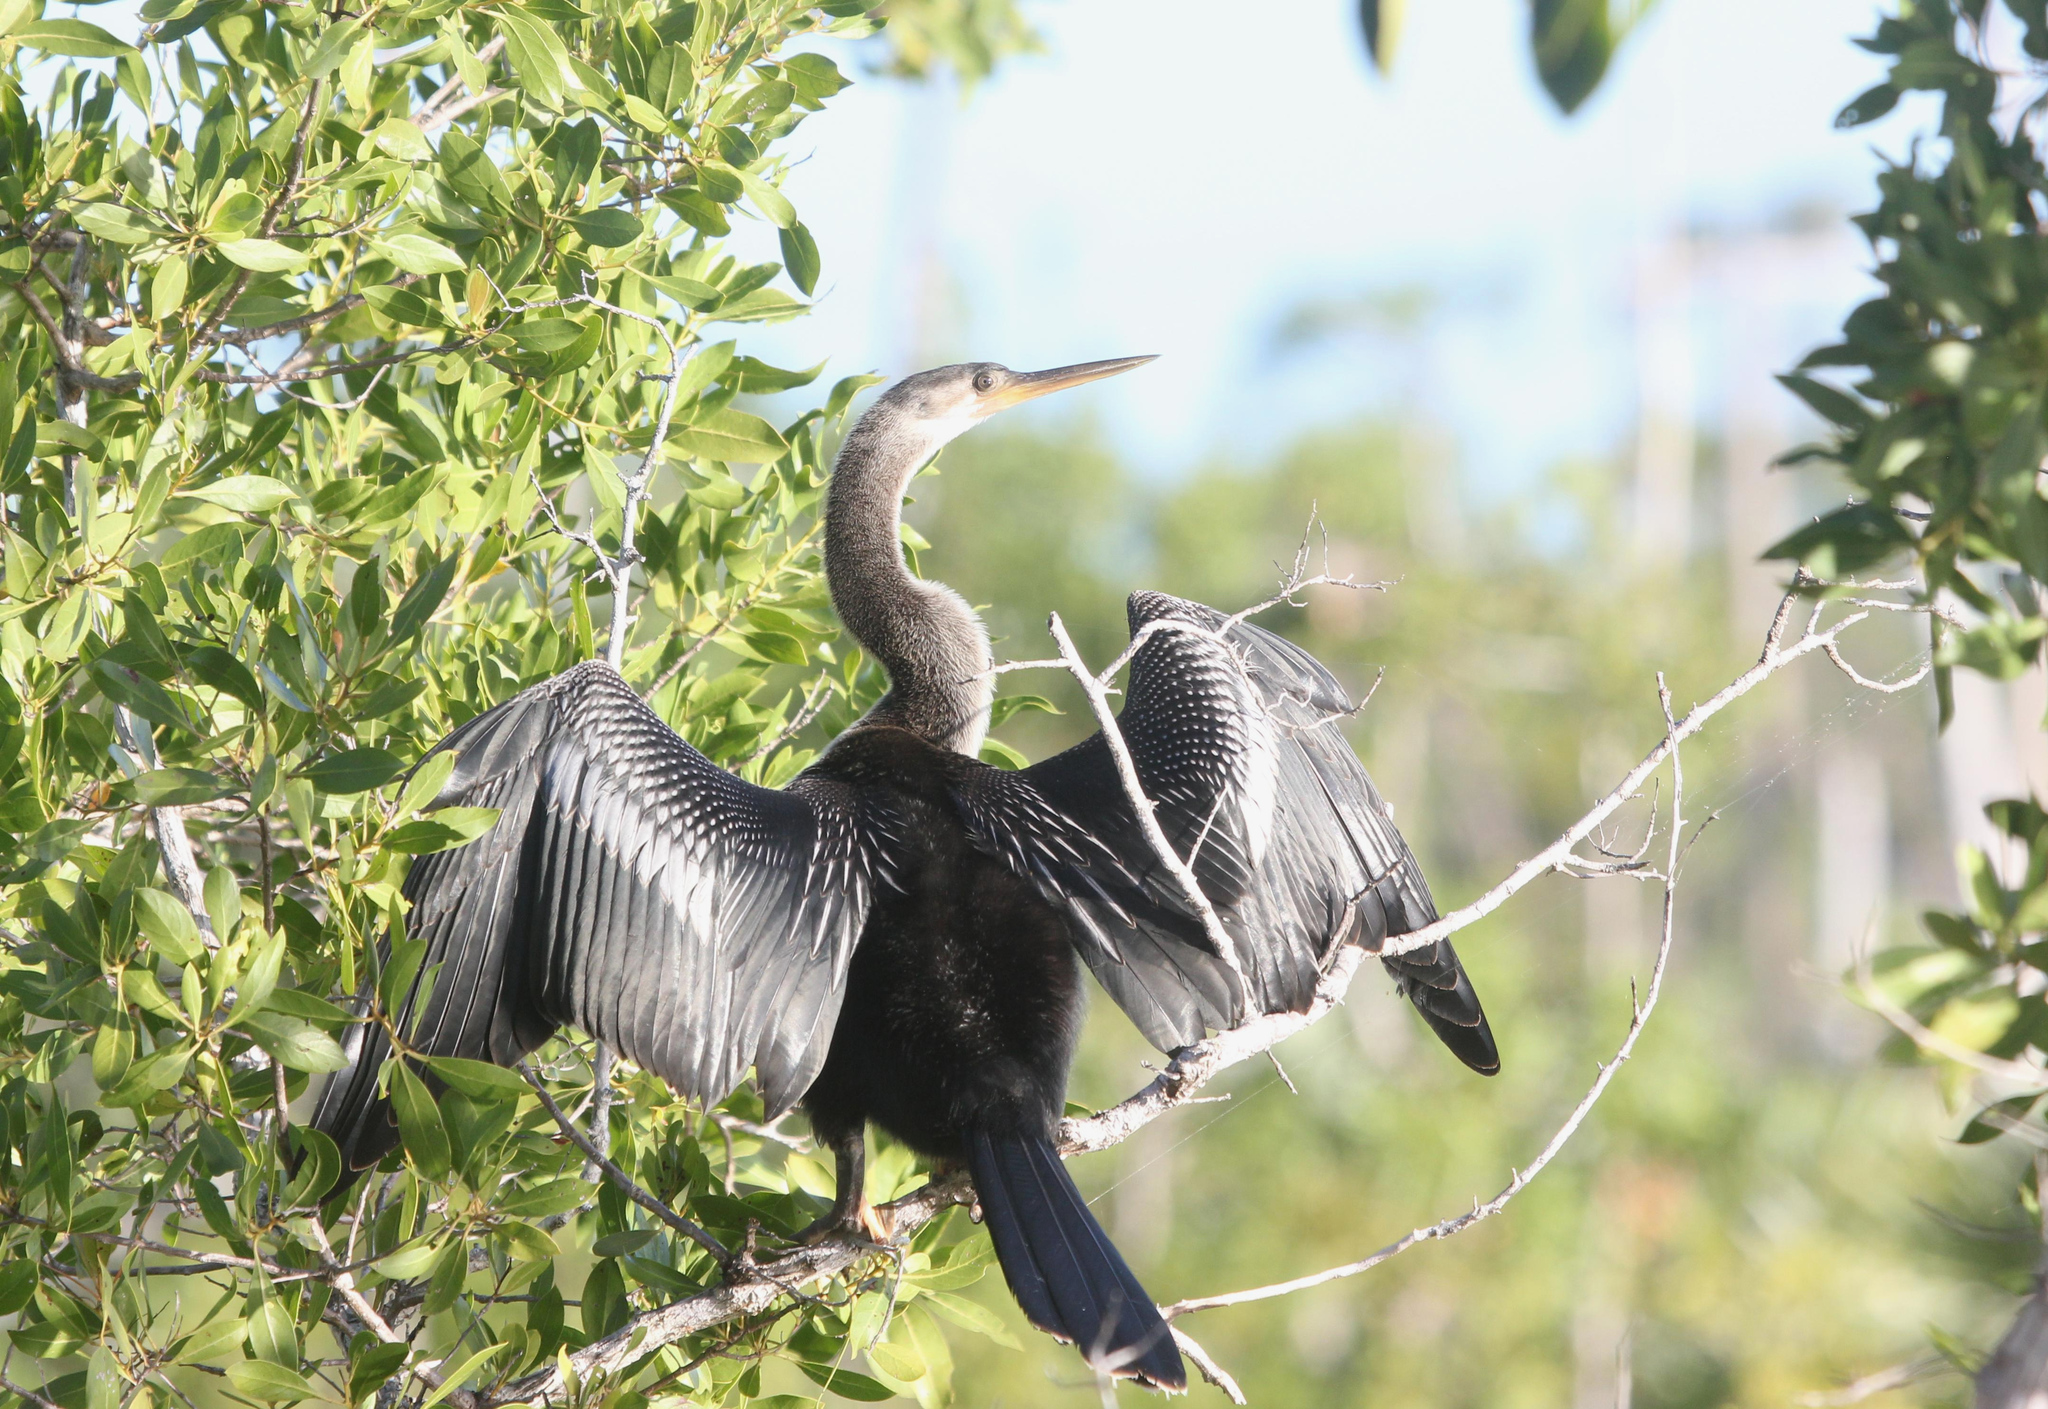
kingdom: Animalia
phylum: Chordata
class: Aves
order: Suliformes
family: Anhingidae
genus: Anhinga
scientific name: Anhinga anhinga
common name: Anhinga
